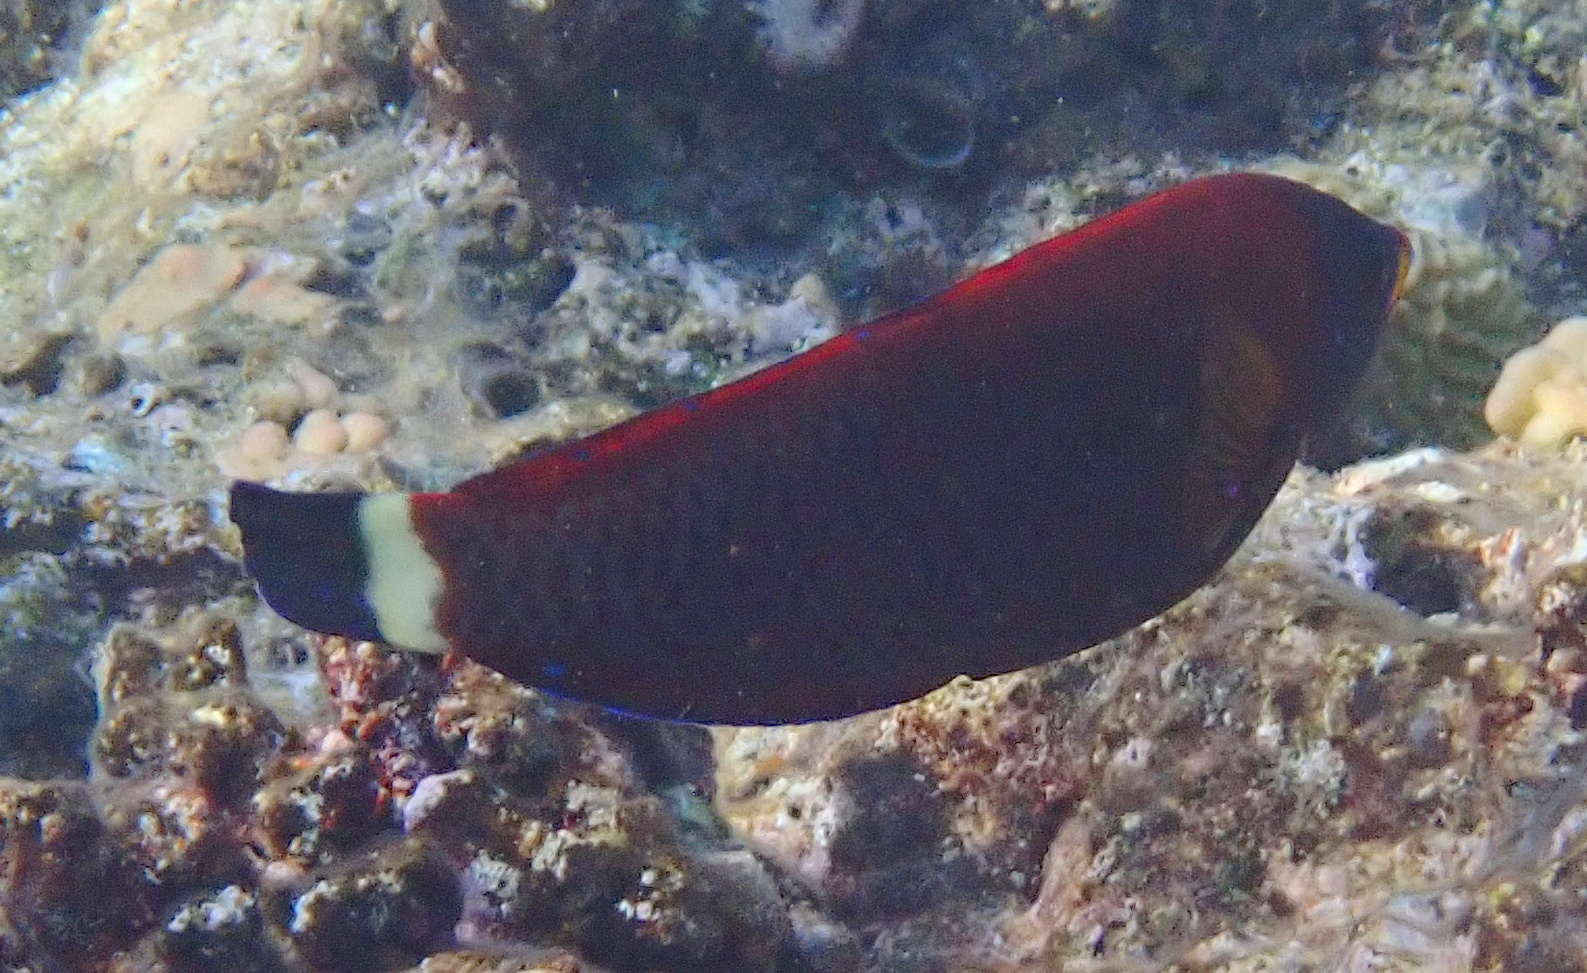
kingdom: Animalia
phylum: Chordata
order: Perciformes
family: Labridae
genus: Pseudodax
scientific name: Pseudodax moluccanus
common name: Chiseltooth wrasse
